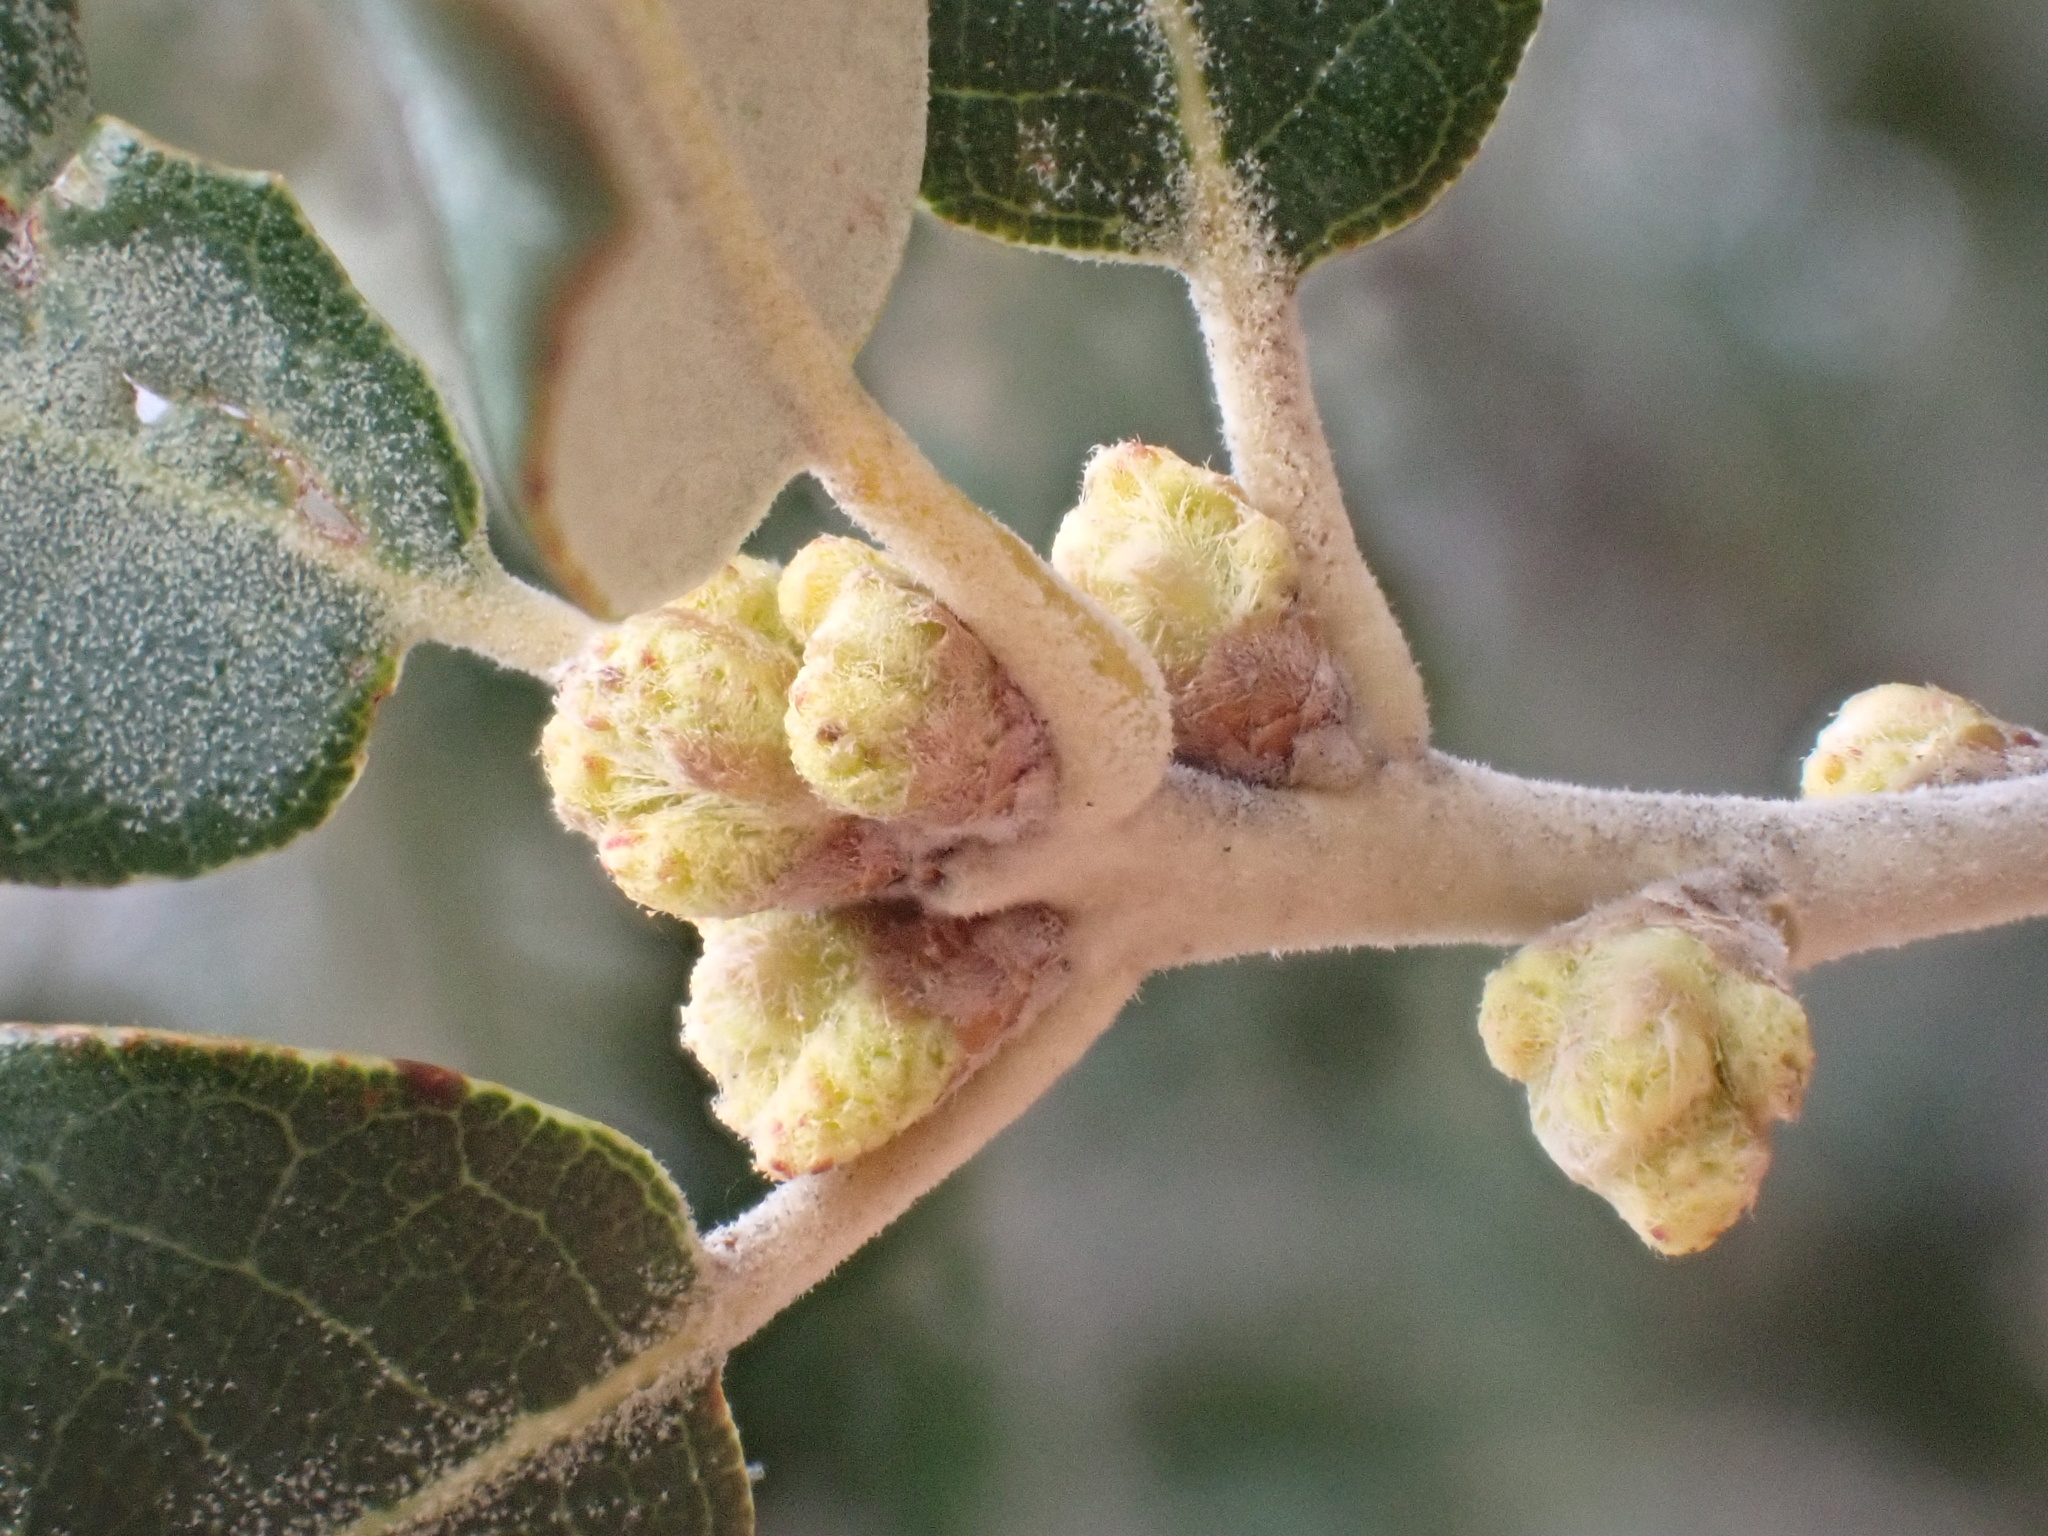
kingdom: Plantae
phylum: Tracheophyta
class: Magnoliopsida
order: Fagales
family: Fagaceae
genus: Quercus
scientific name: Quercus rotundifolia
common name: Holm oak
